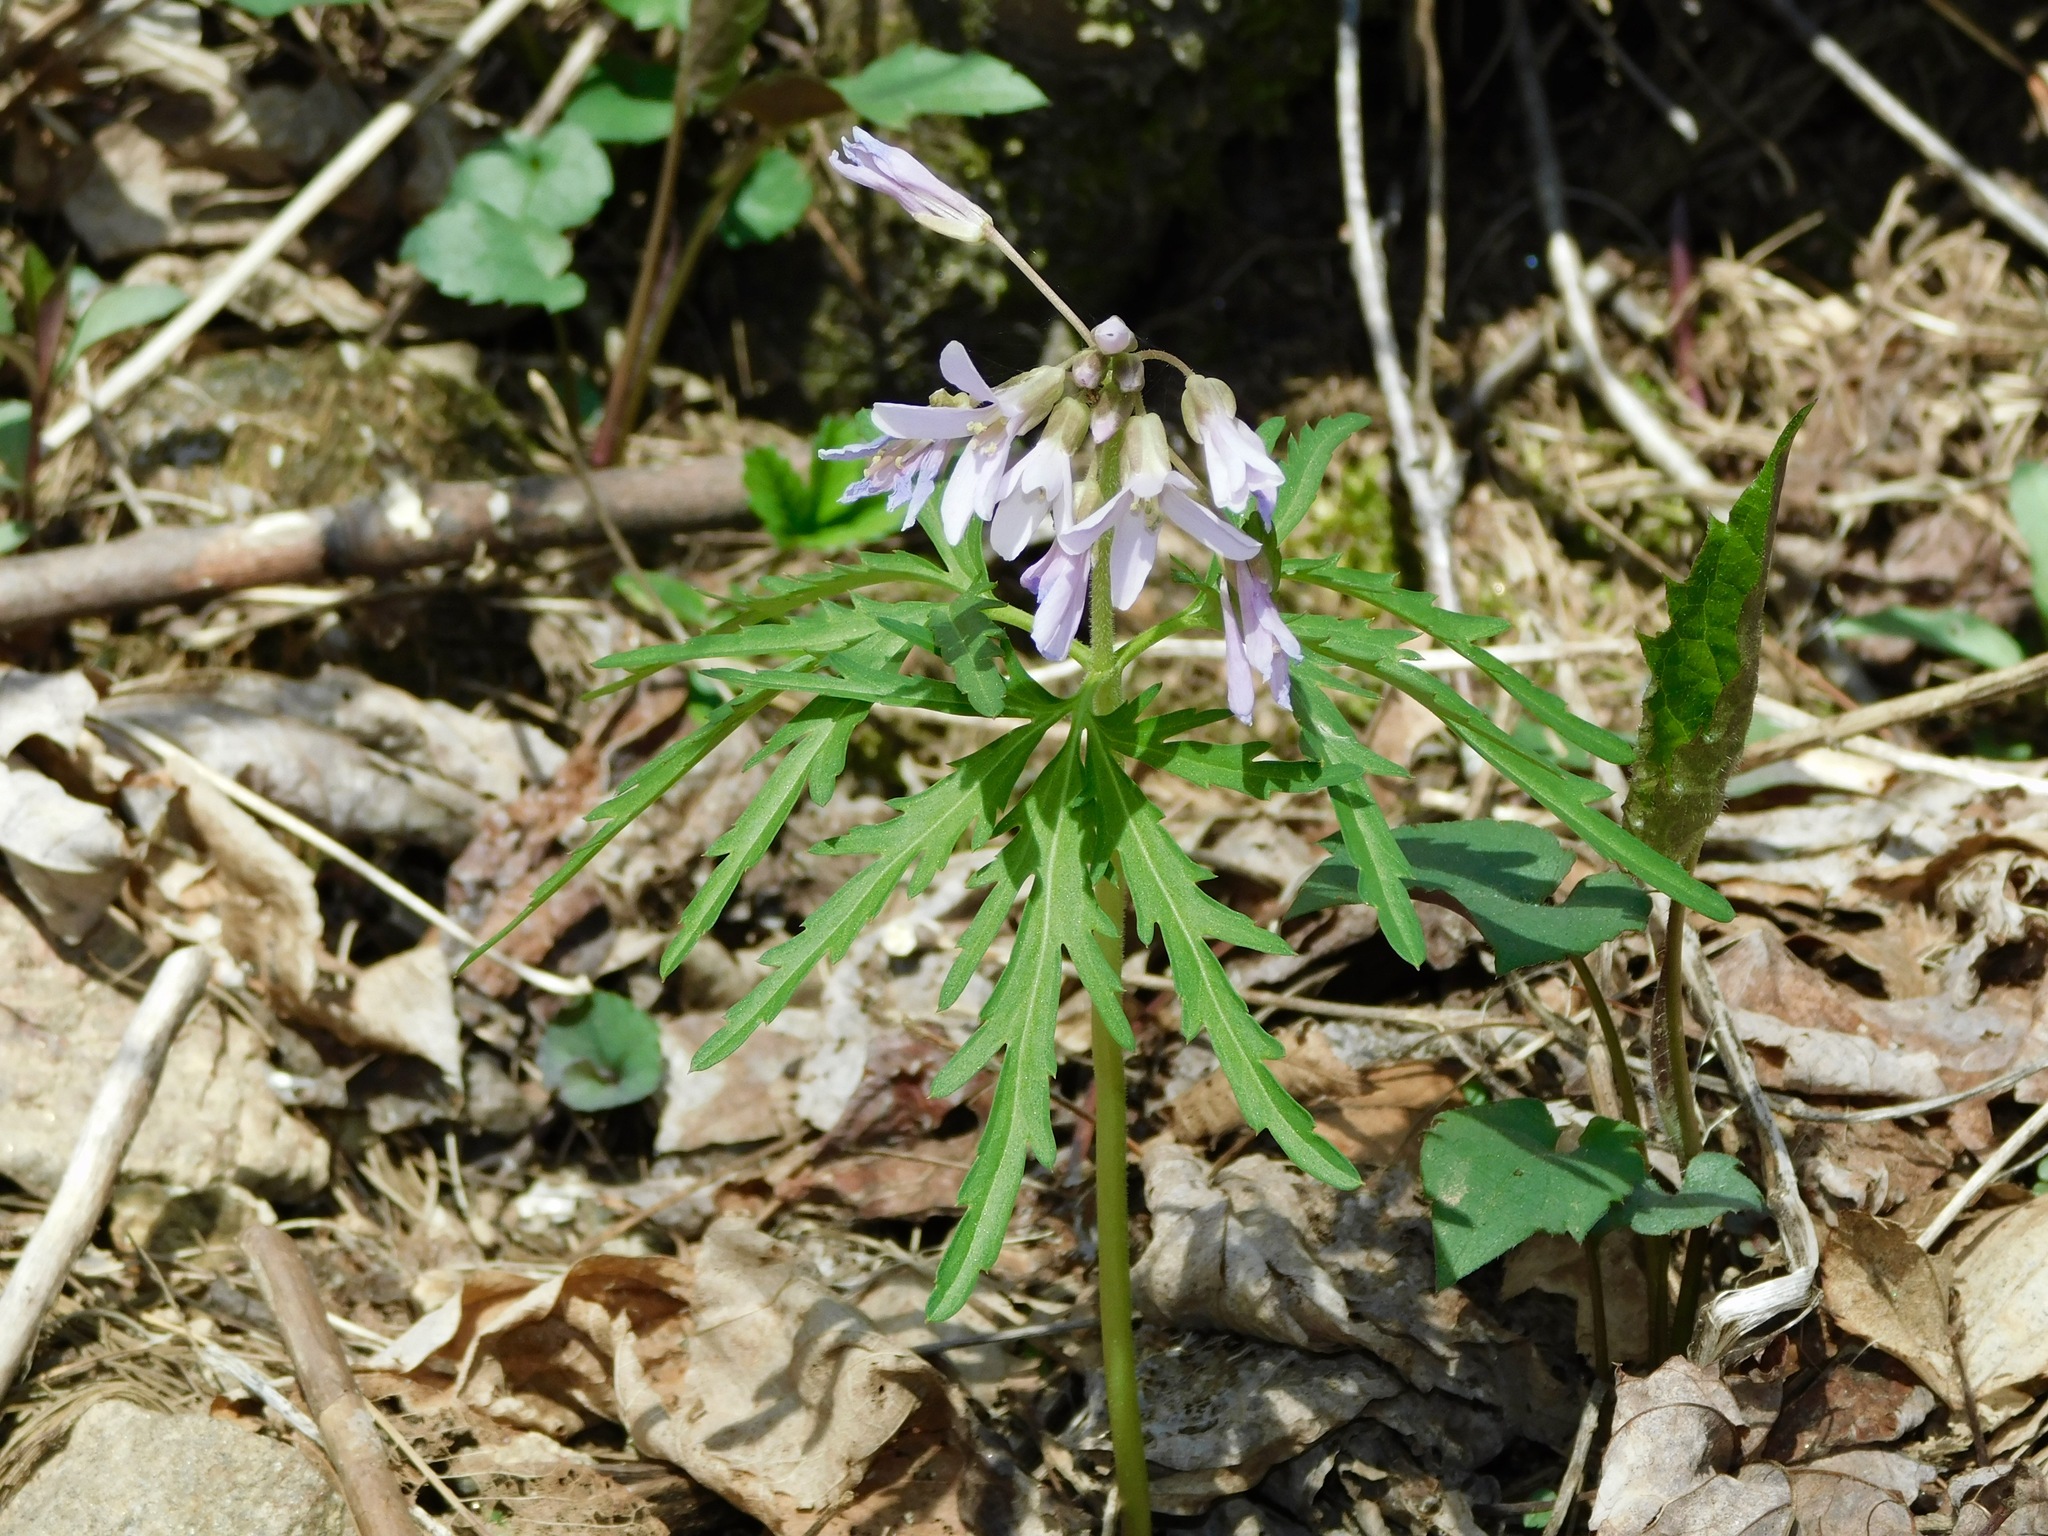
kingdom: Plantae
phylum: Tracheophyta
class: Magnoliopsida
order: Brassicales
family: Brassicaceae
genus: Cardamine
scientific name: Cardamine concatenata
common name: Cut-leaf toothcup
